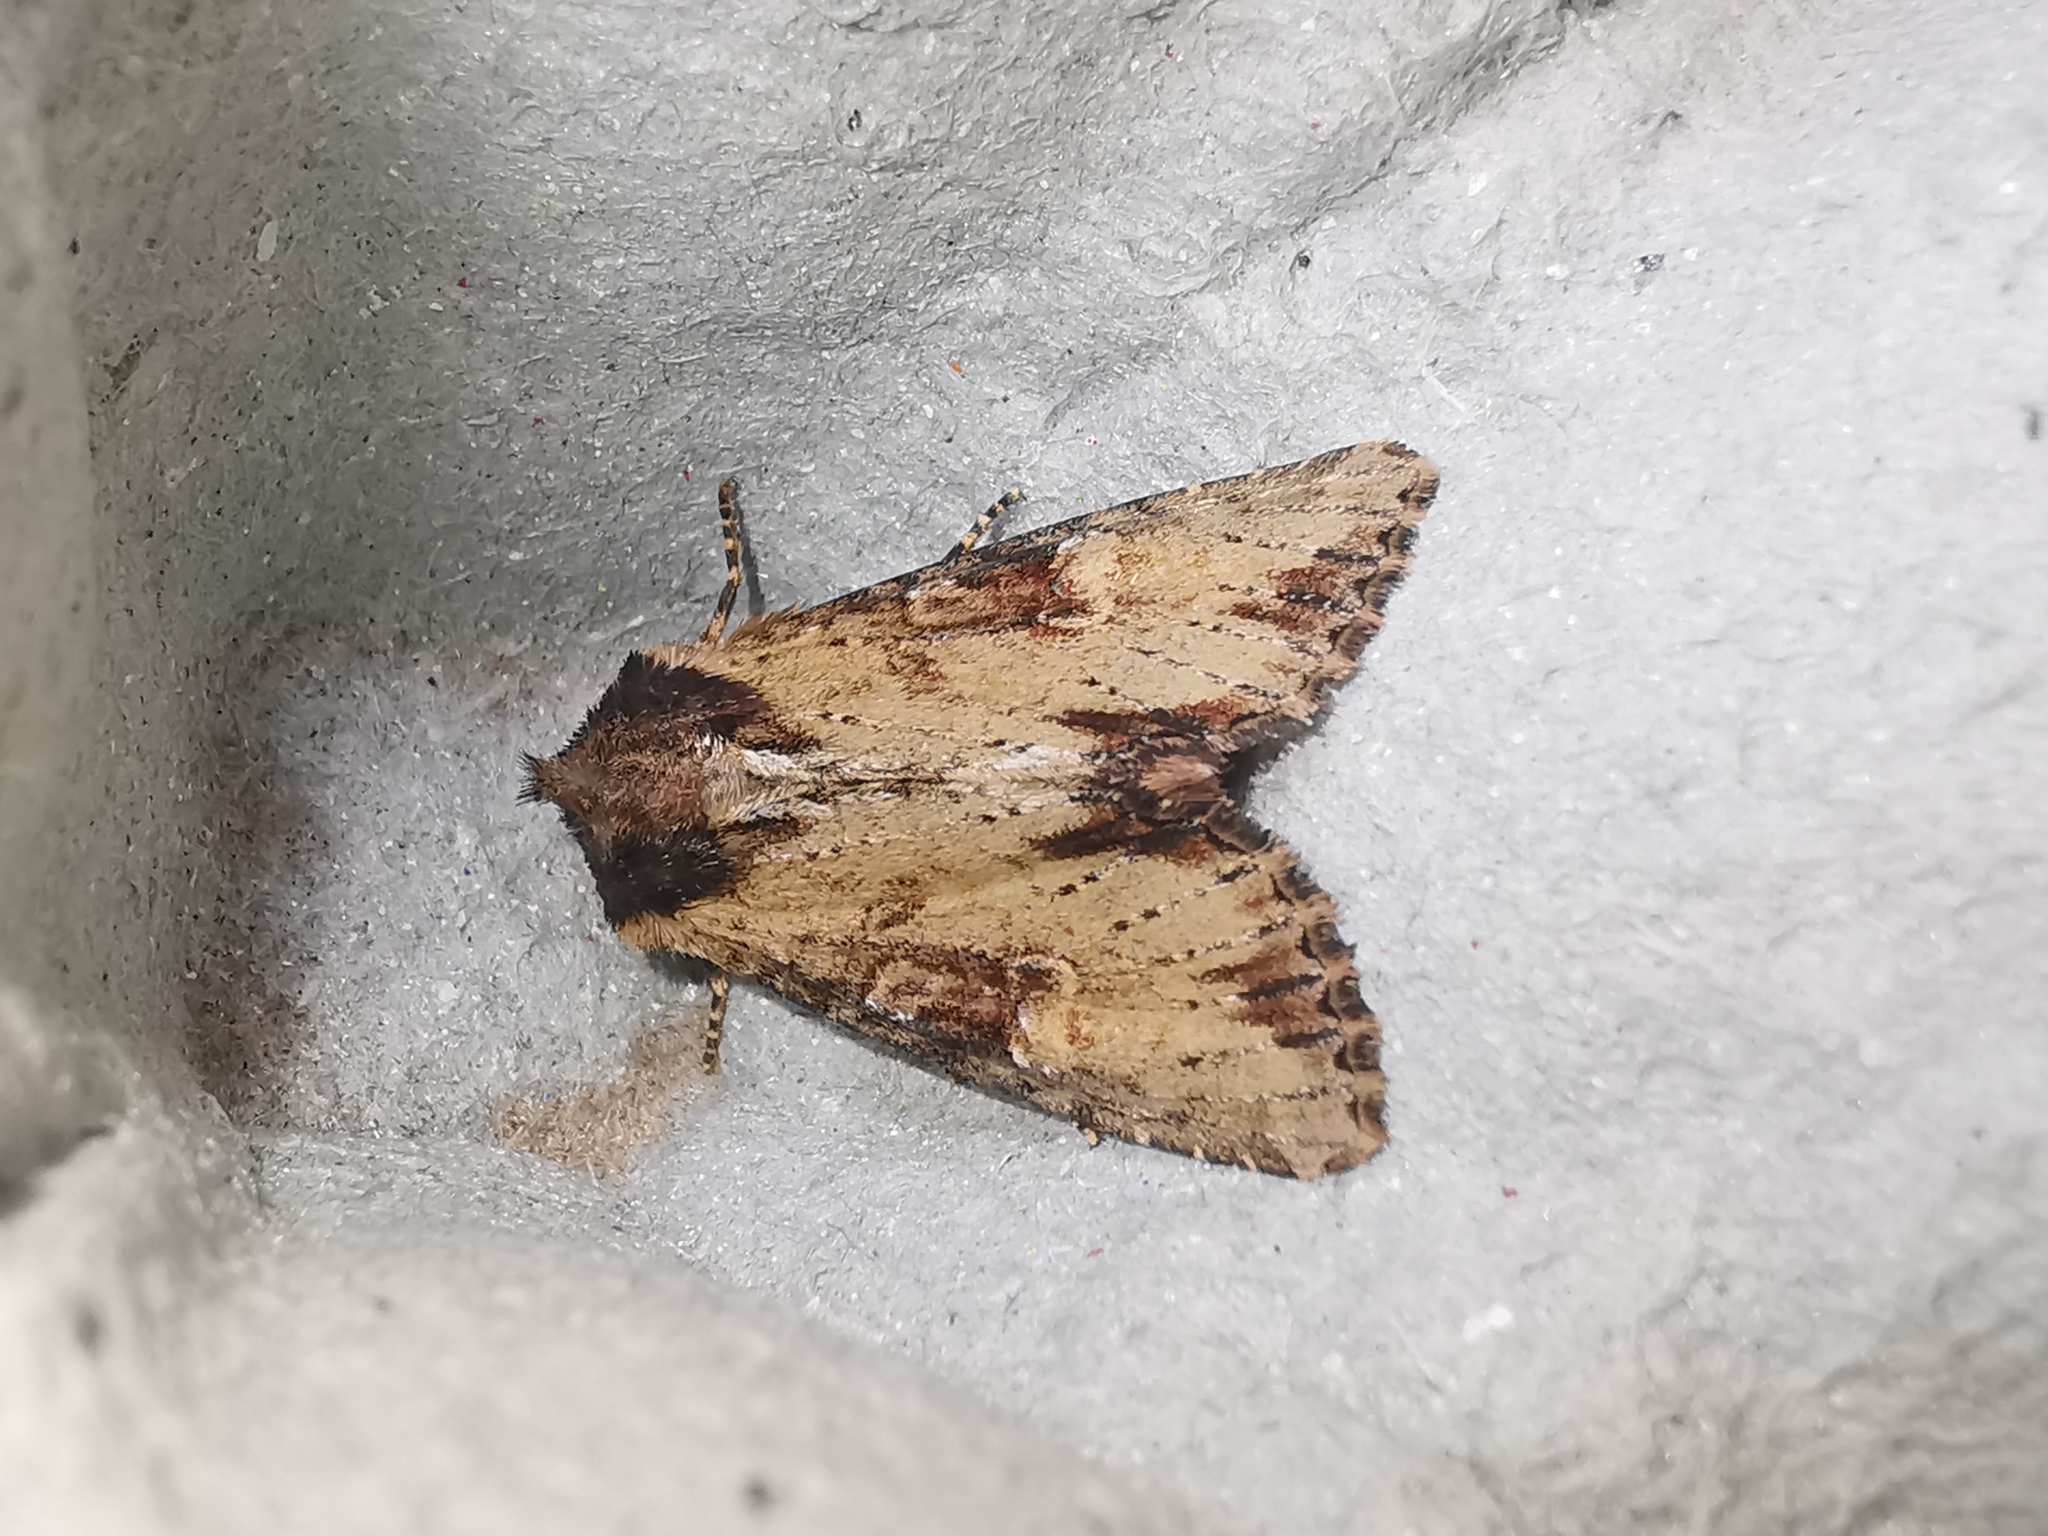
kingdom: Animalia
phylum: Arthropoda
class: Insecta
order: Lepidoptera
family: Noctuidae
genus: Apamea
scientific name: Apamea crenata
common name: Clouded-bordered brindle
